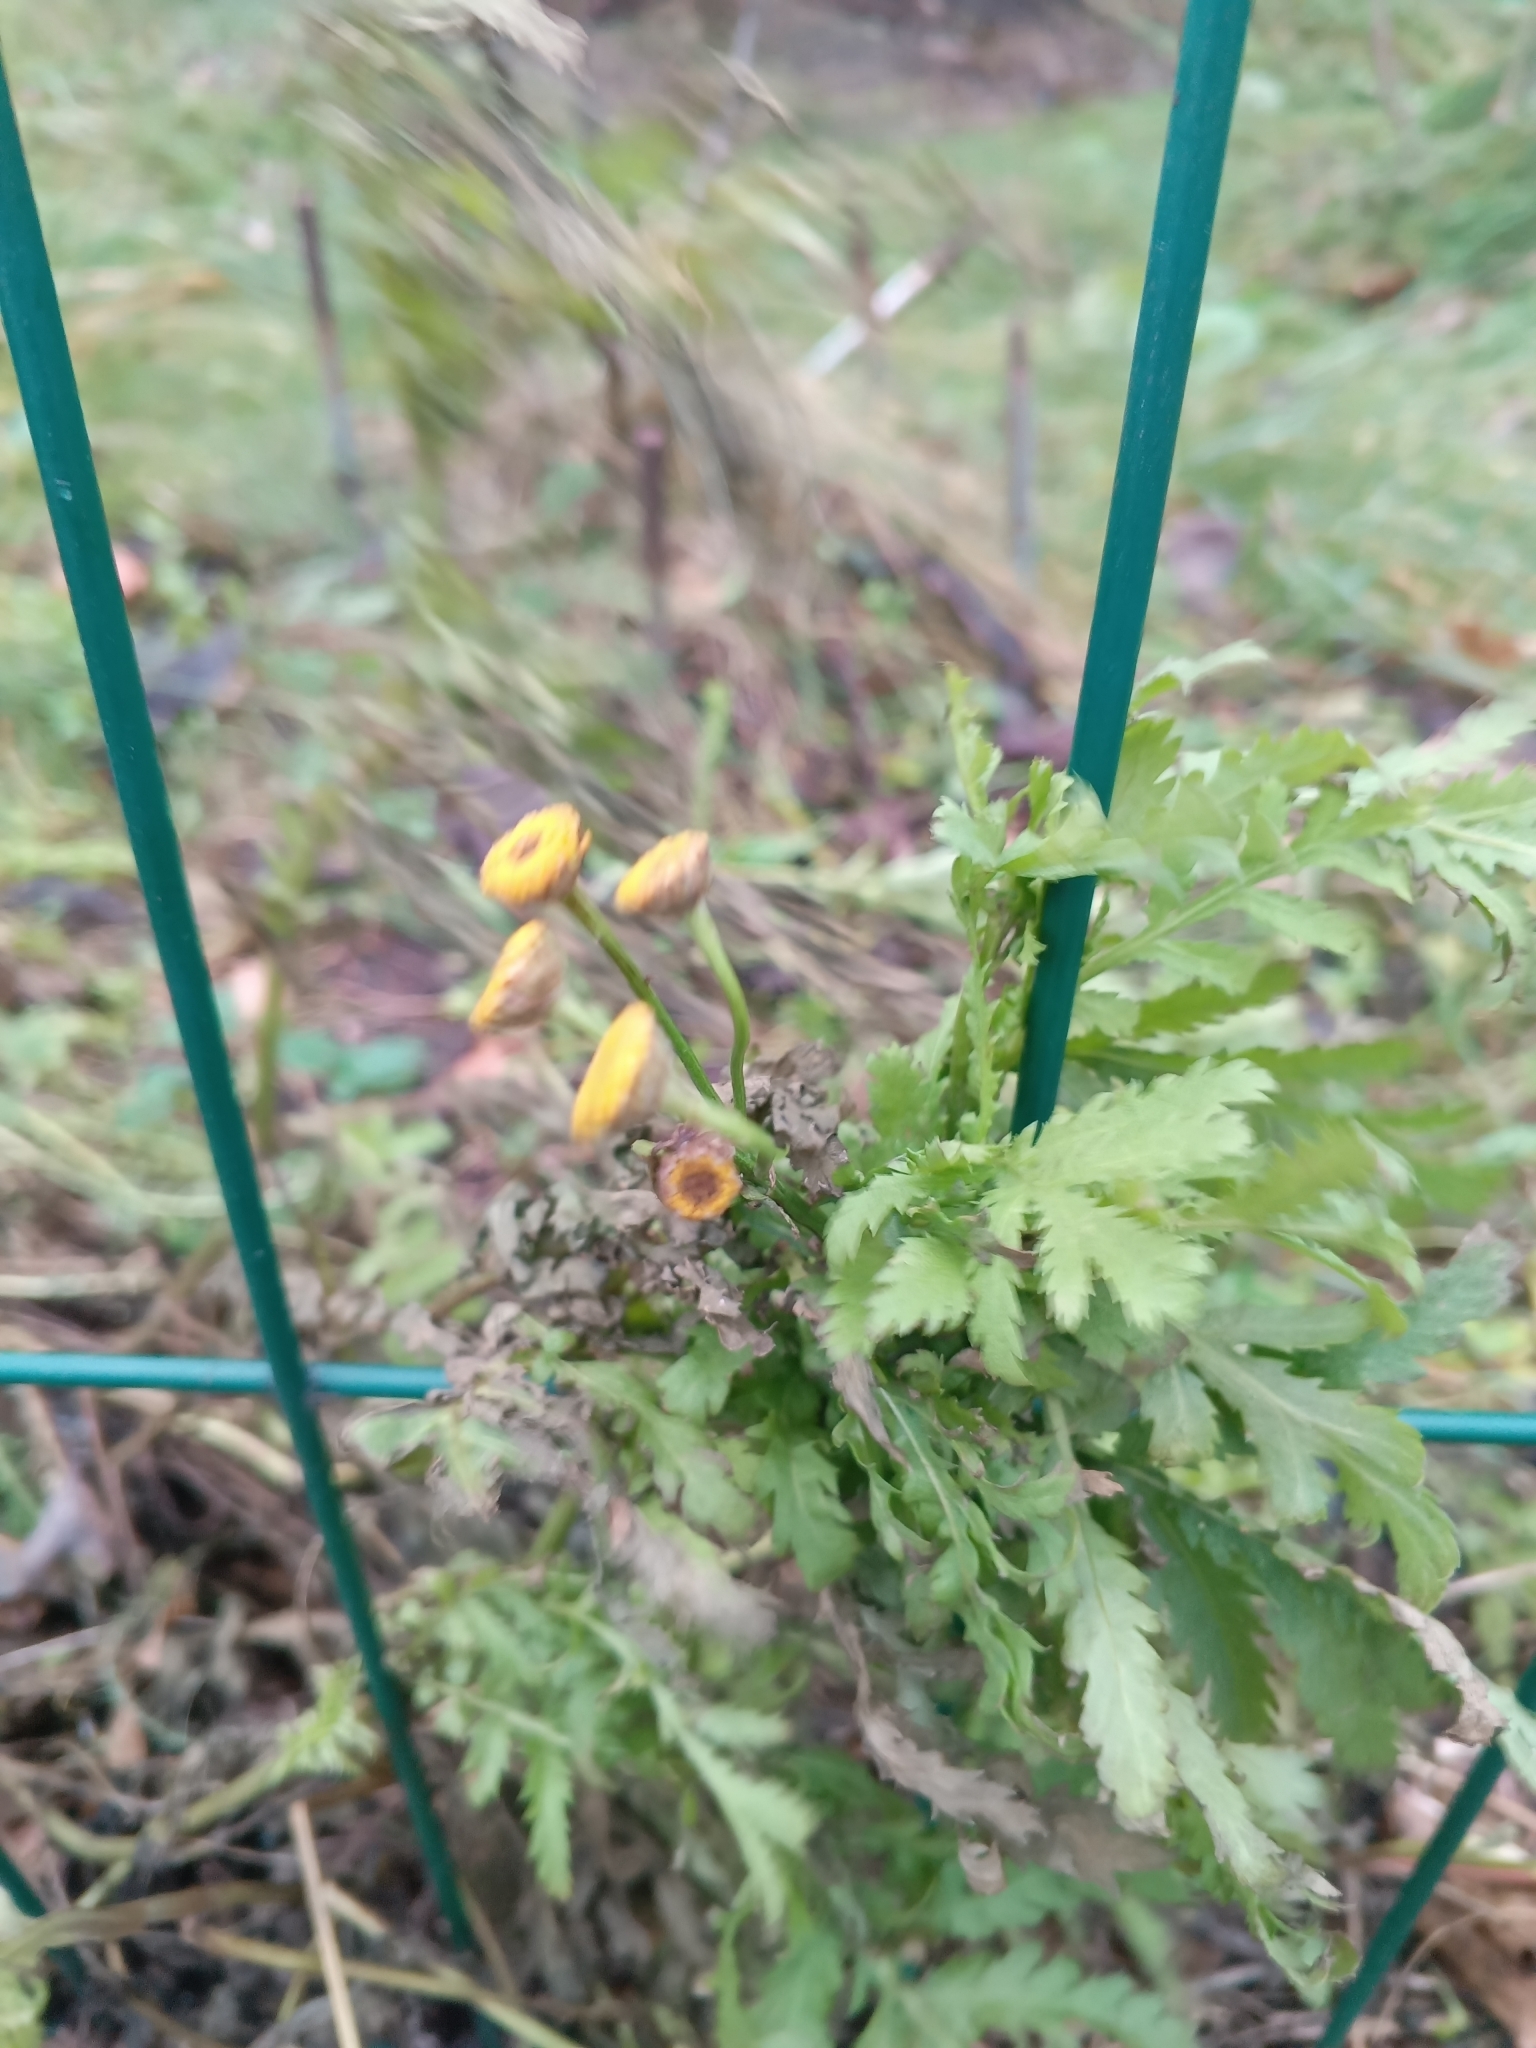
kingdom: Plantae
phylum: Tracheophyta
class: Magnoliopsida
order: Asterales
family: Asteraceae
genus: Tanacetum
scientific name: Tanacetum vulgare
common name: Common tansy
